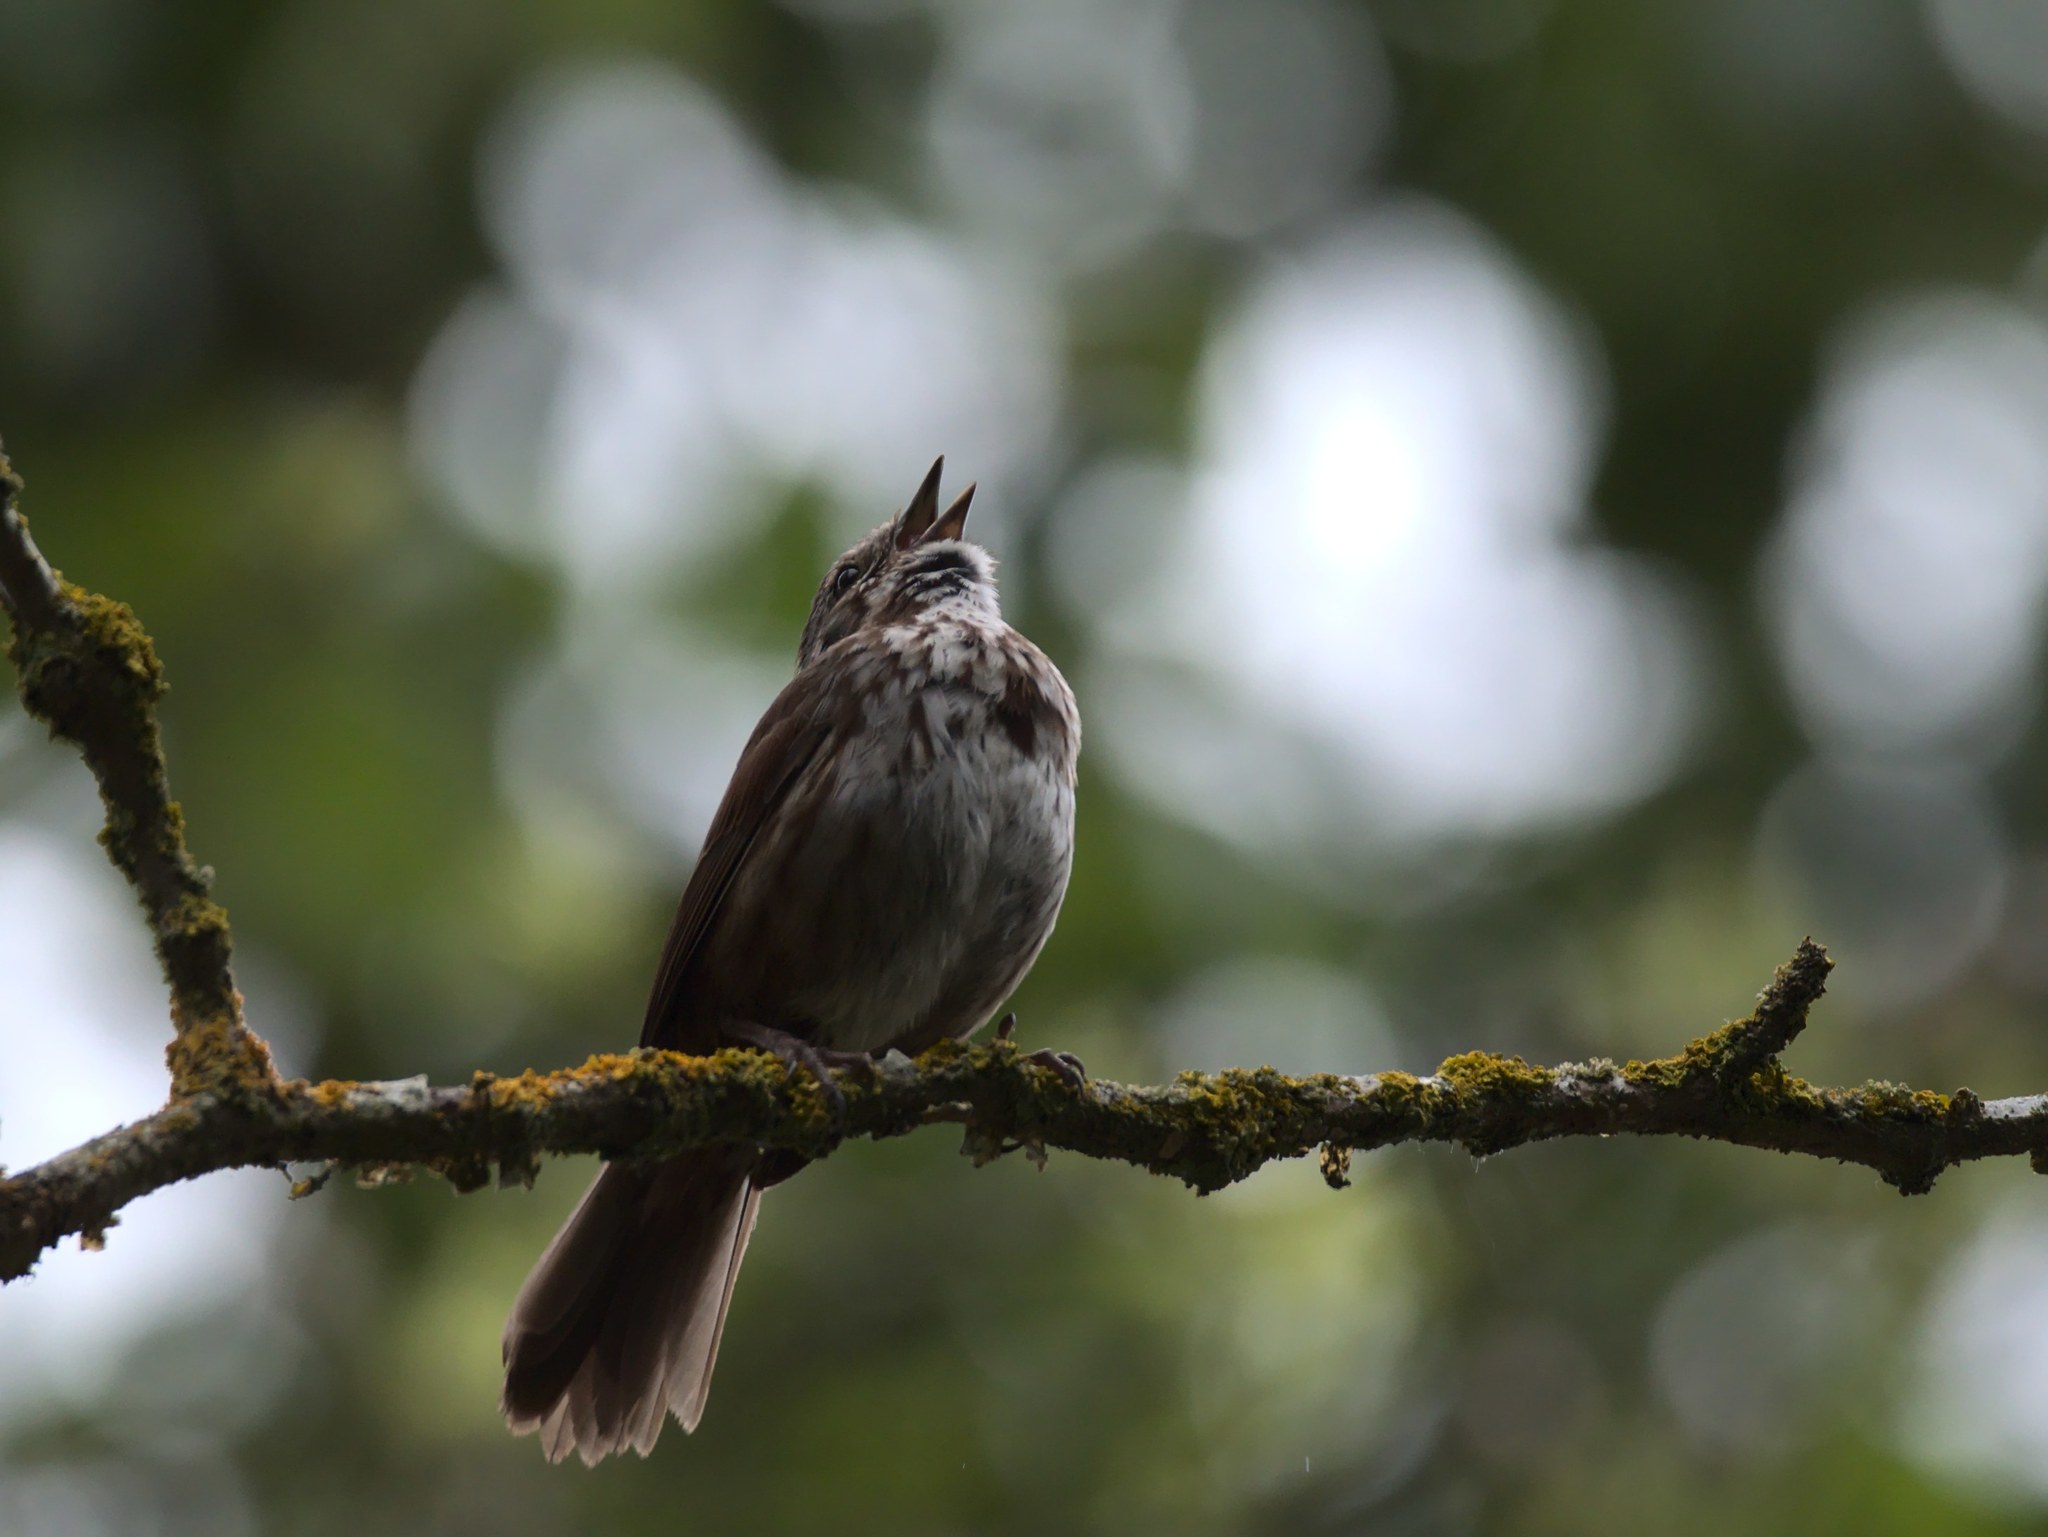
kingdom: Animalia
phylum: Chordata
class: Aves
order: Passeriformes
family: Passerellidae
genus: Melospiza
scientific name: Melospiza melodia
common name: Song sparrow
